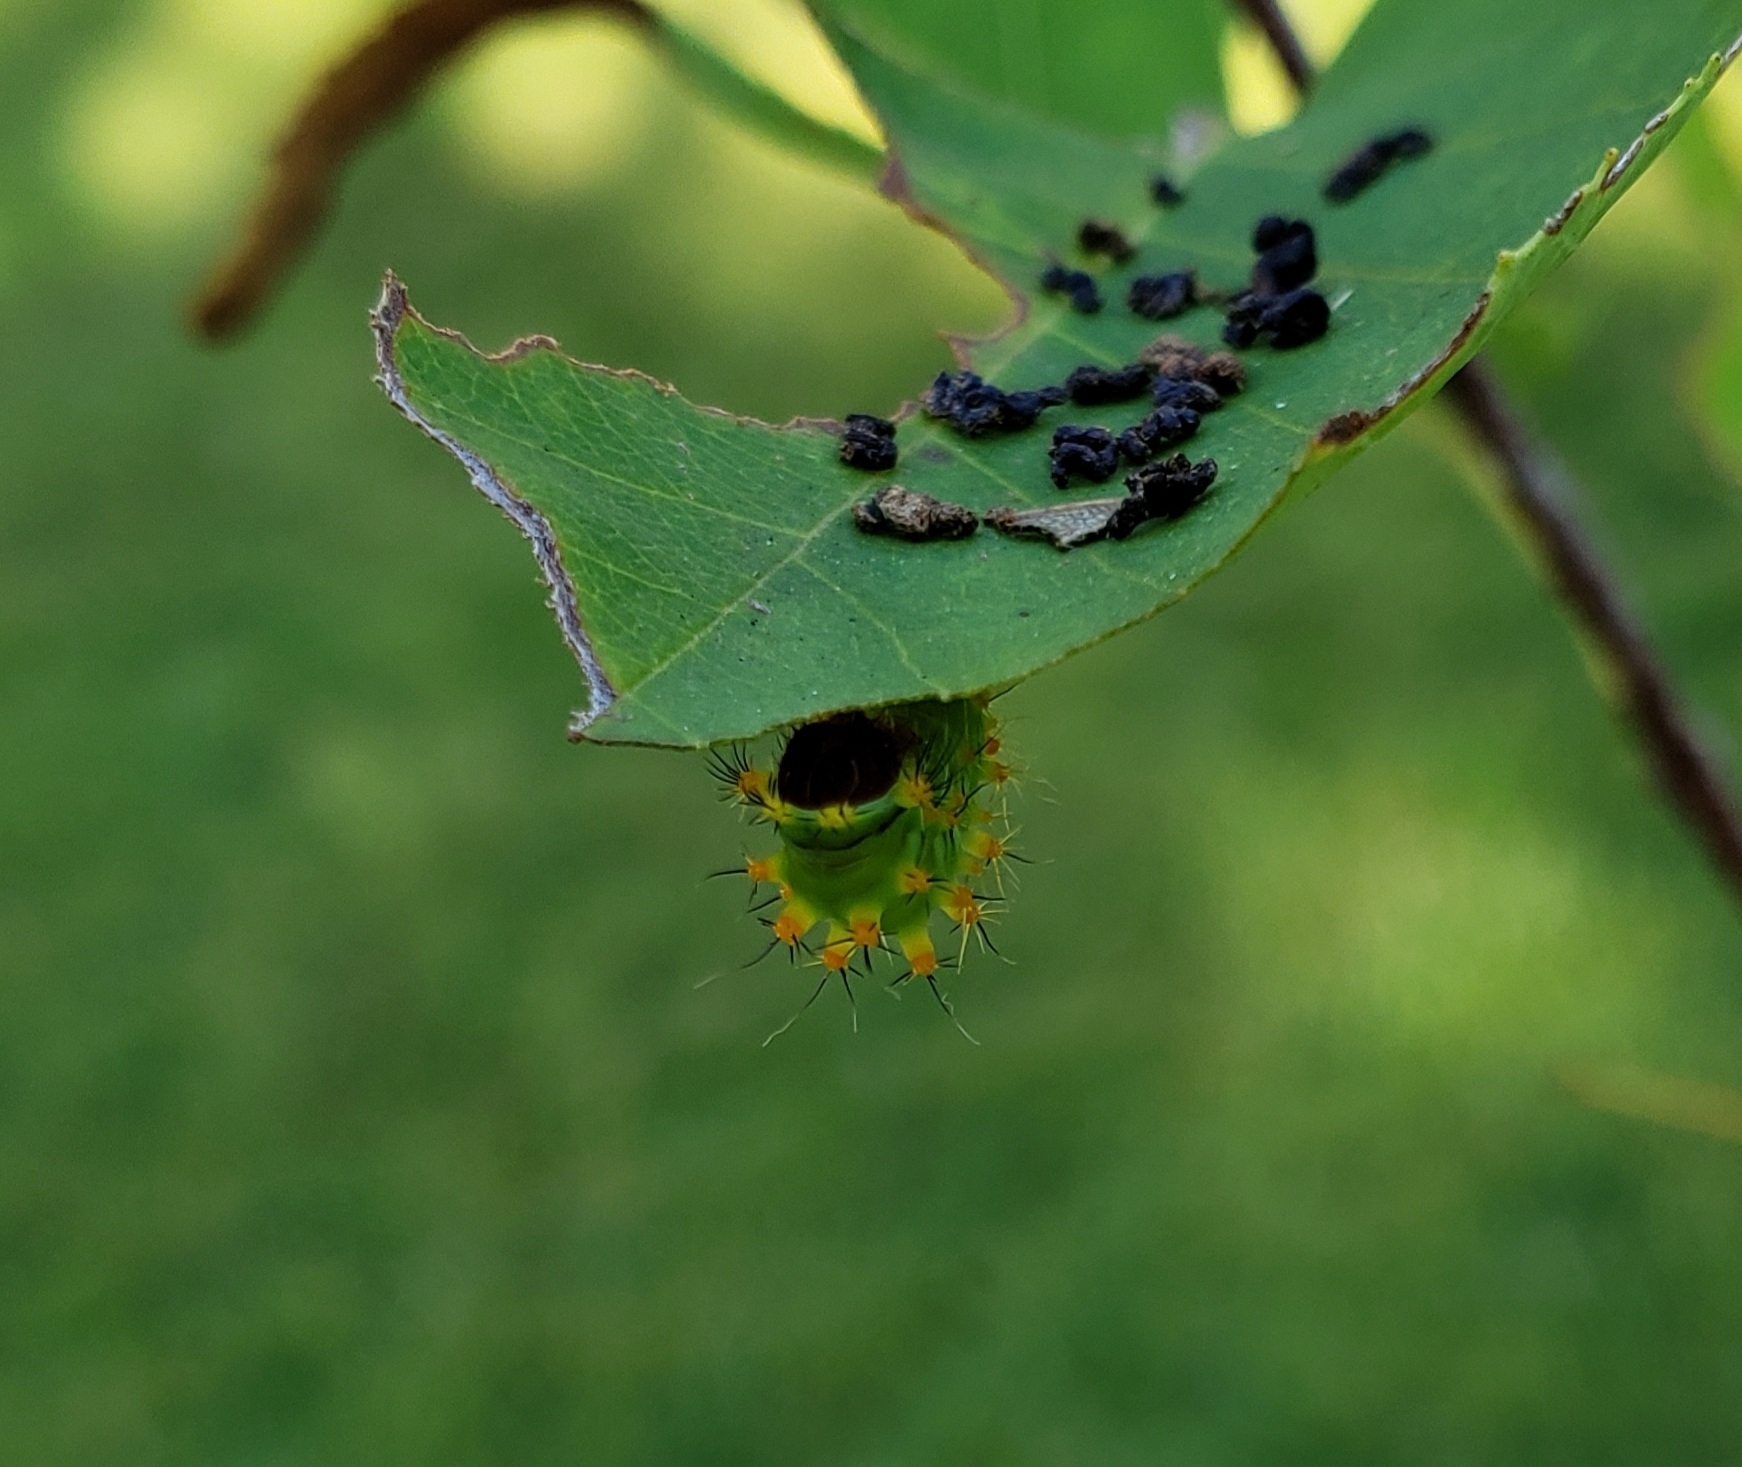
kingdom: Animalia
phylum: Arthropoda
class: Insecta
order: Lepidoptera
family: Saturniidae
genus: Antheraea
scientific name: Antheraea polyphemus
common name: Polyphemus moth
